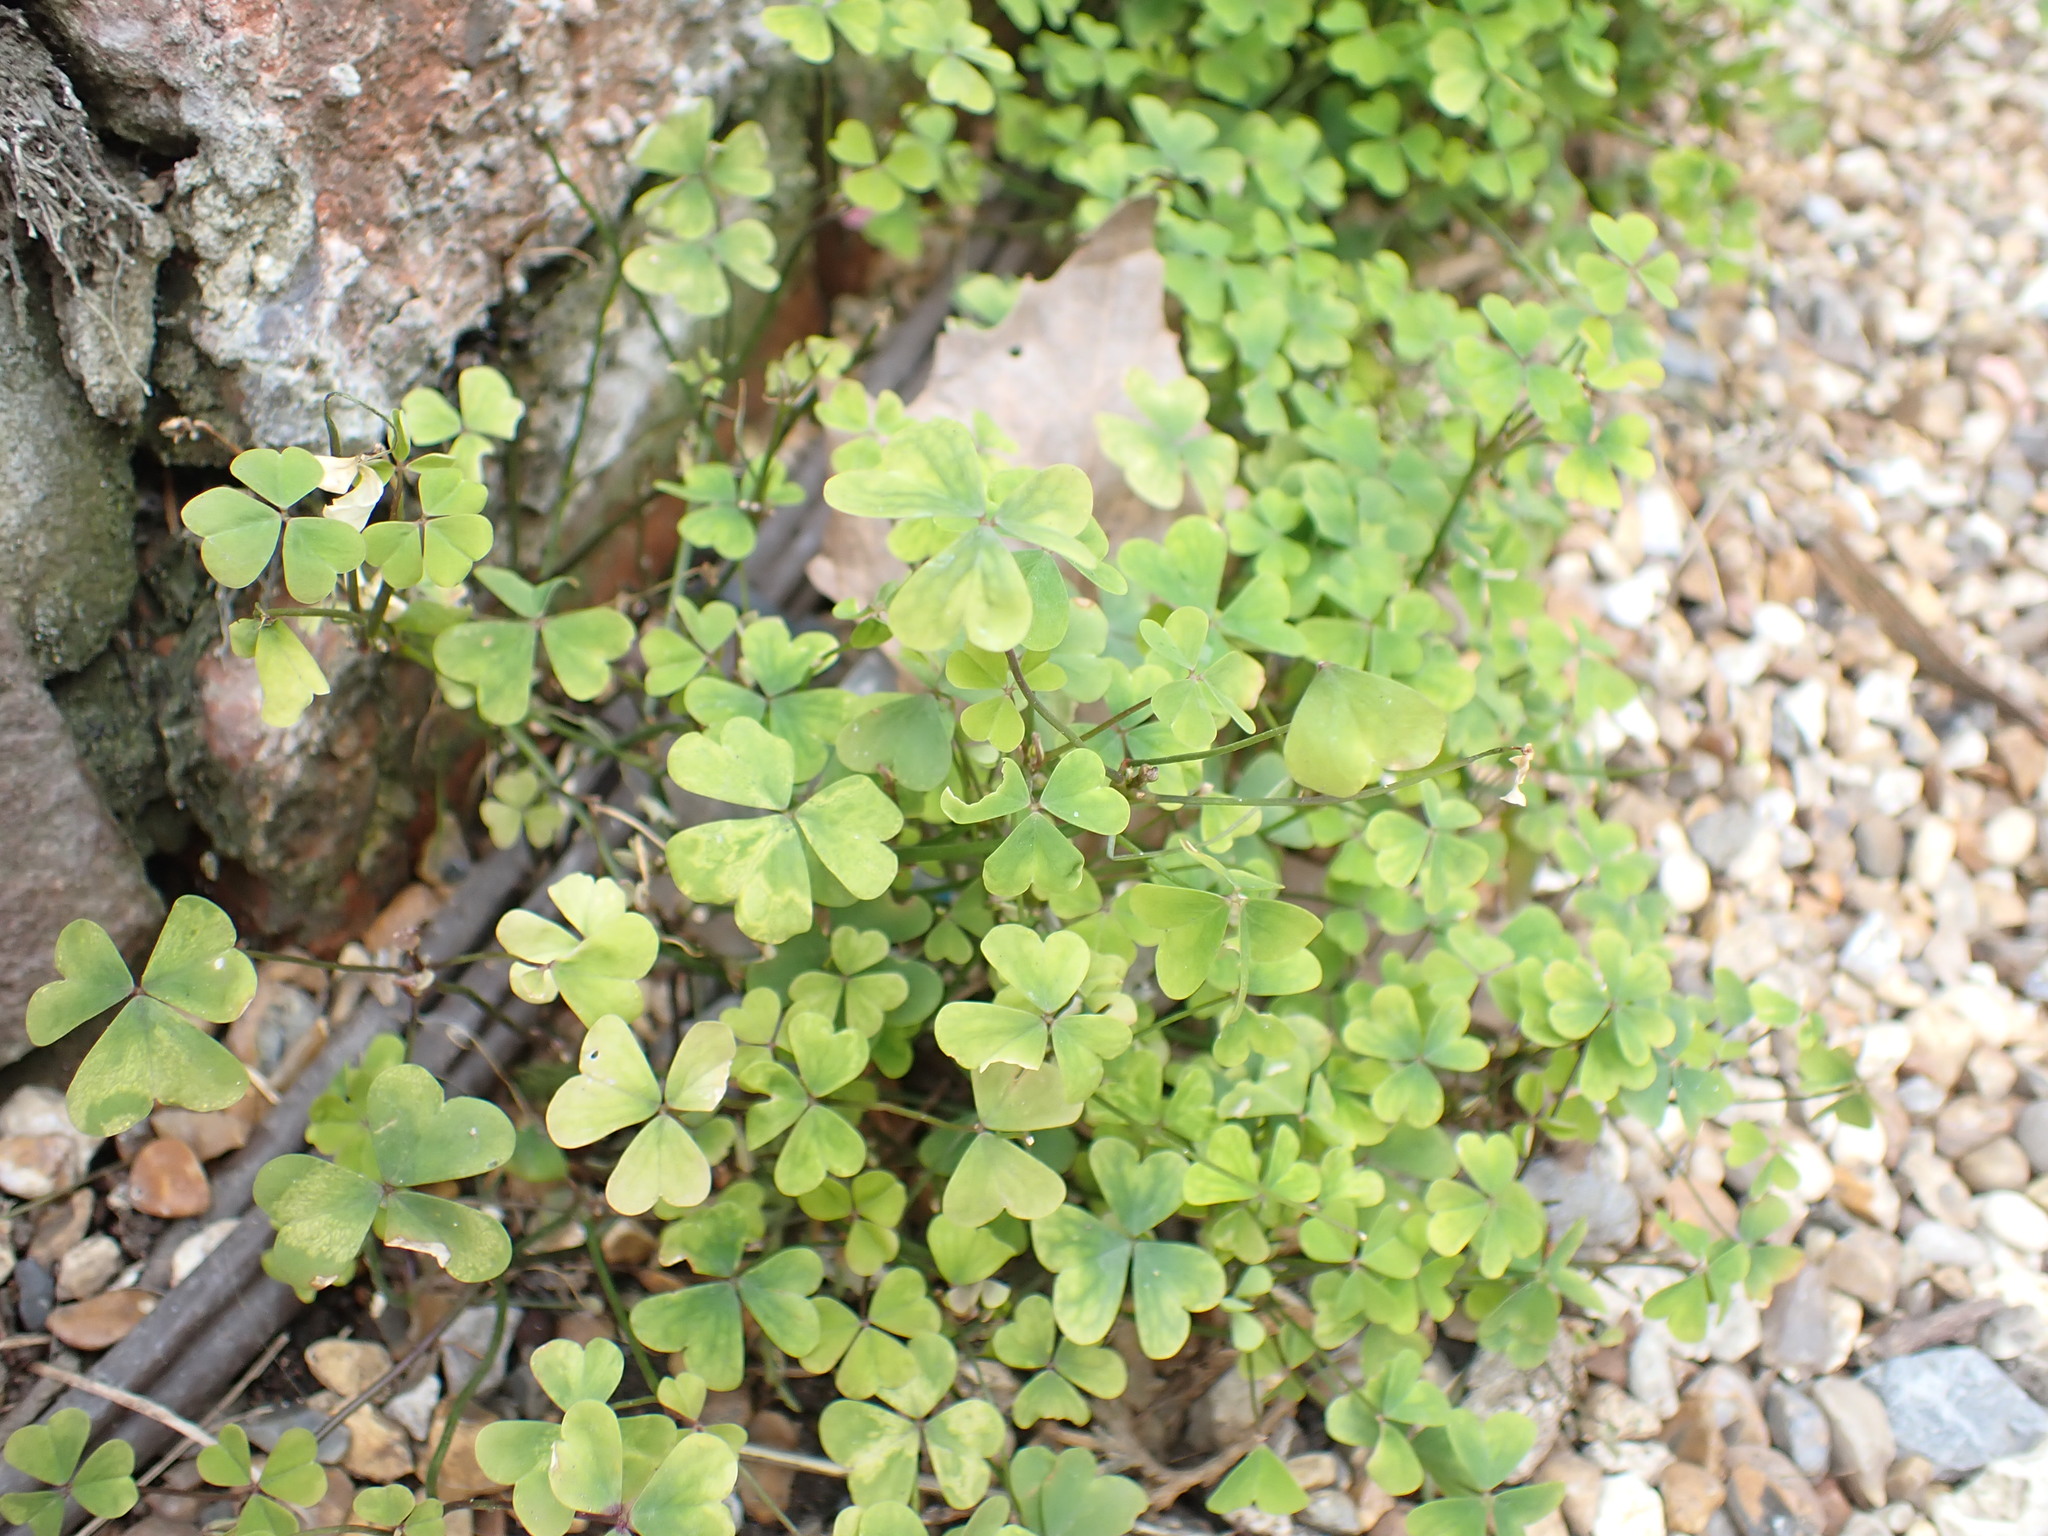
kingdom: Plantae
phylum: Tracheophyta
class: Magnoliopsida
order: Oxalidales
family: Oxalidaceae
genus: Oxalis
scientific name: Oxalis incarnata
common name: Pale pink-sorrel
